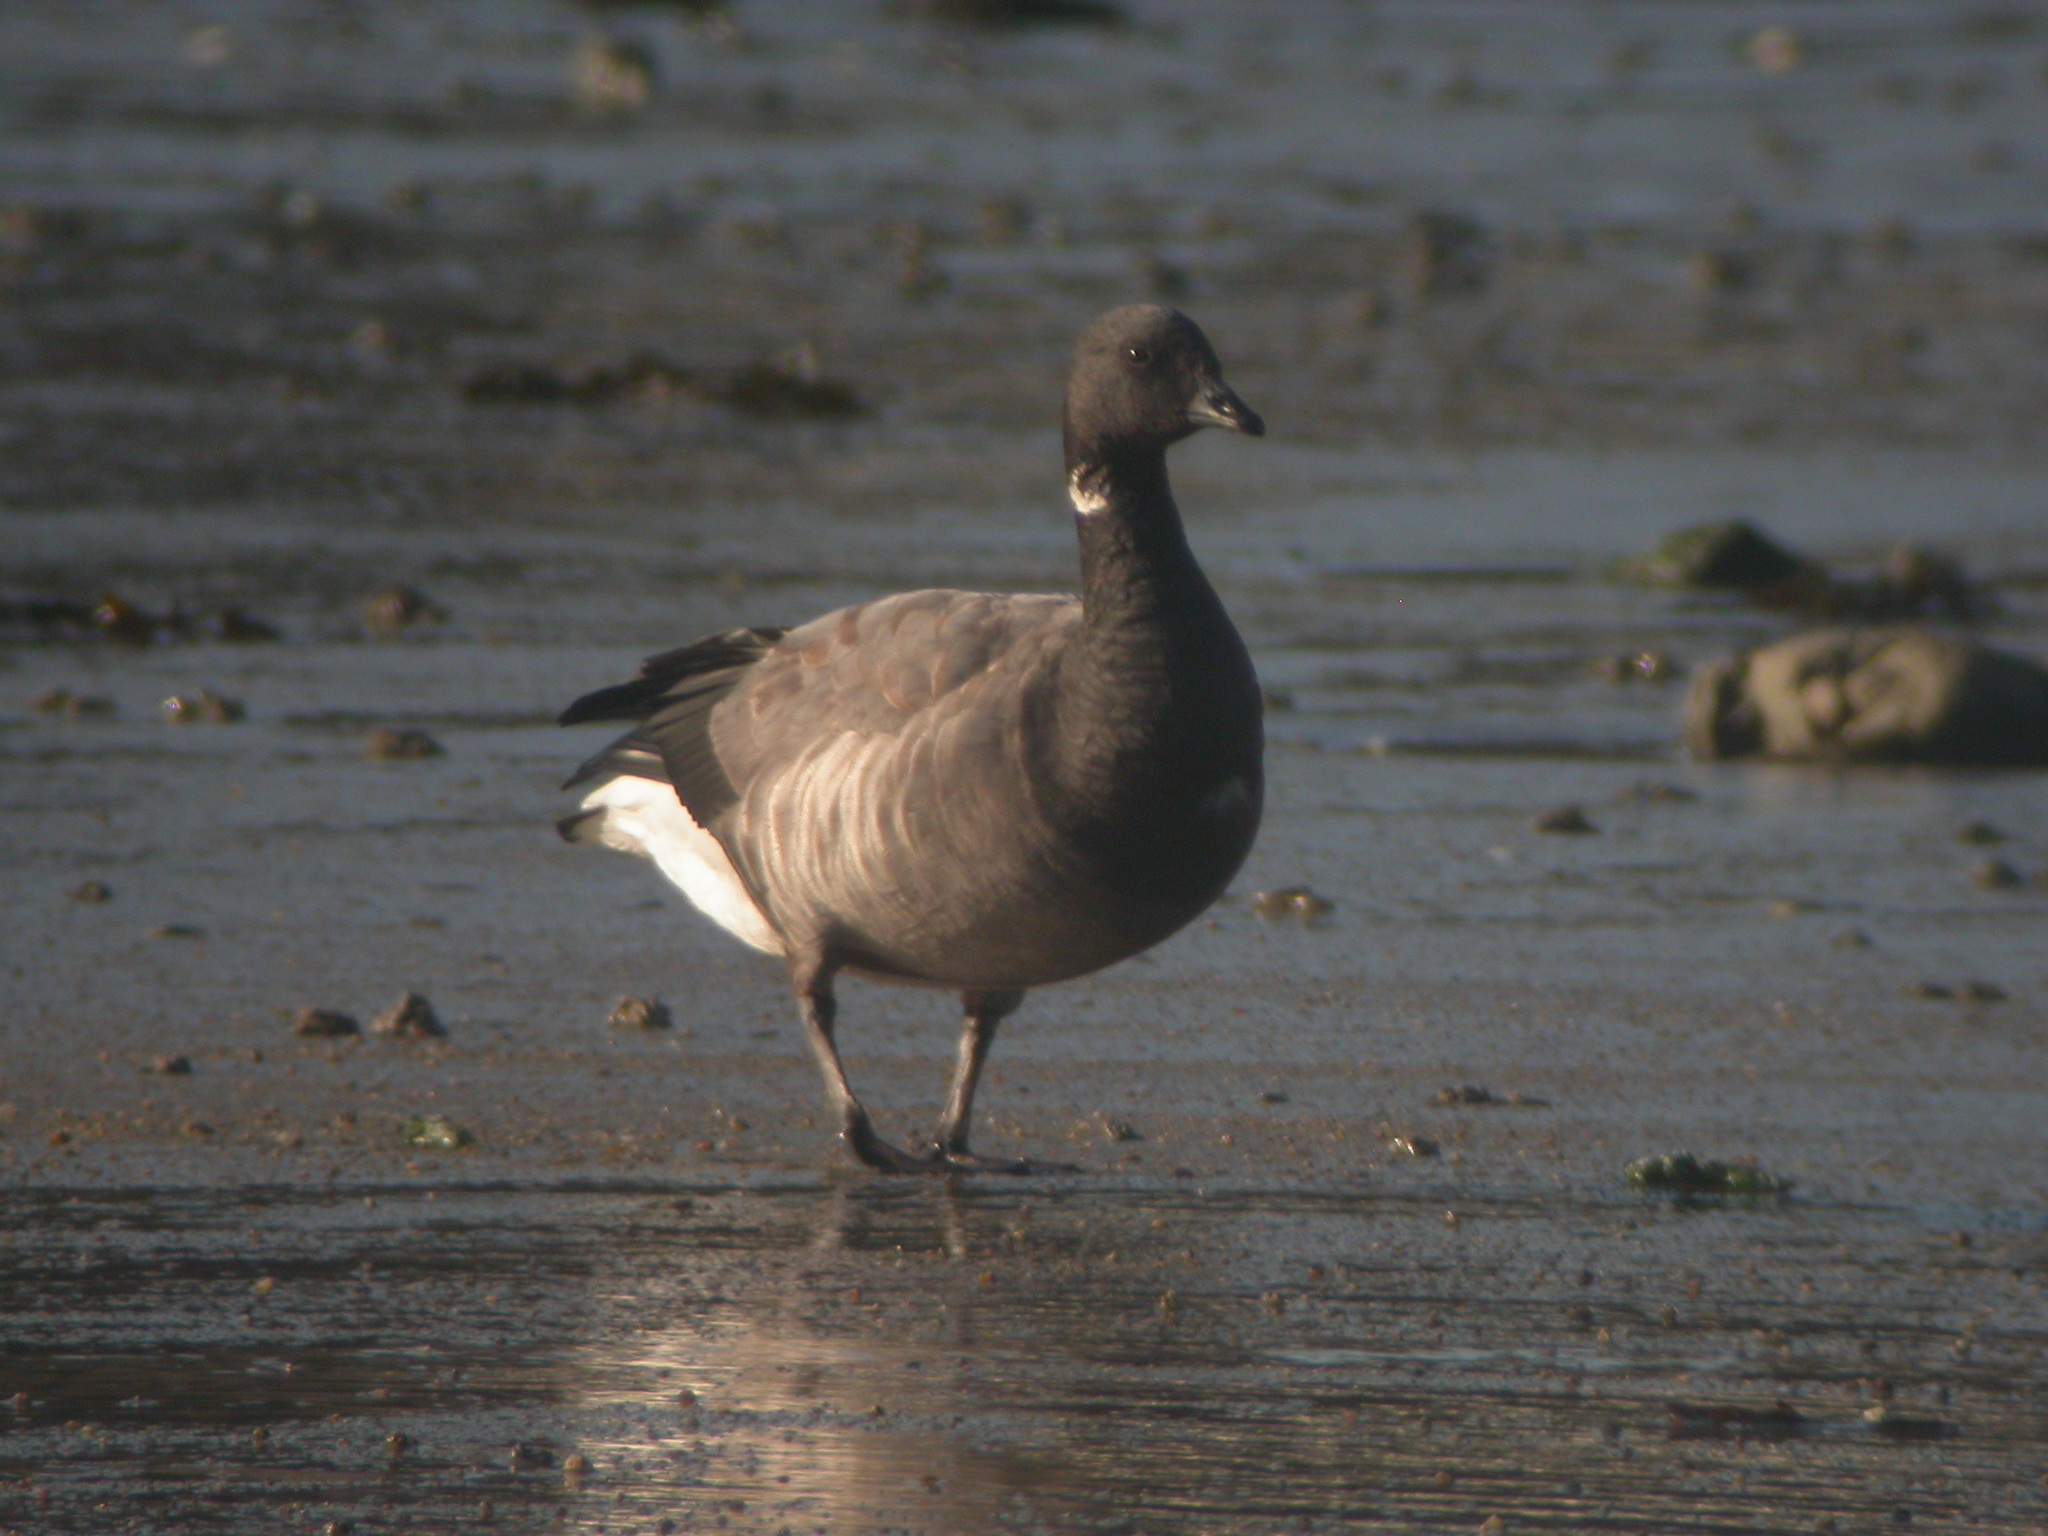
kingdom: Animalia
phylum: Chordata
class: Aves
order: Anseriformes
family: Anatidae
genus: Branta
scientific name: Branta bernicla
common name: Brant goose
